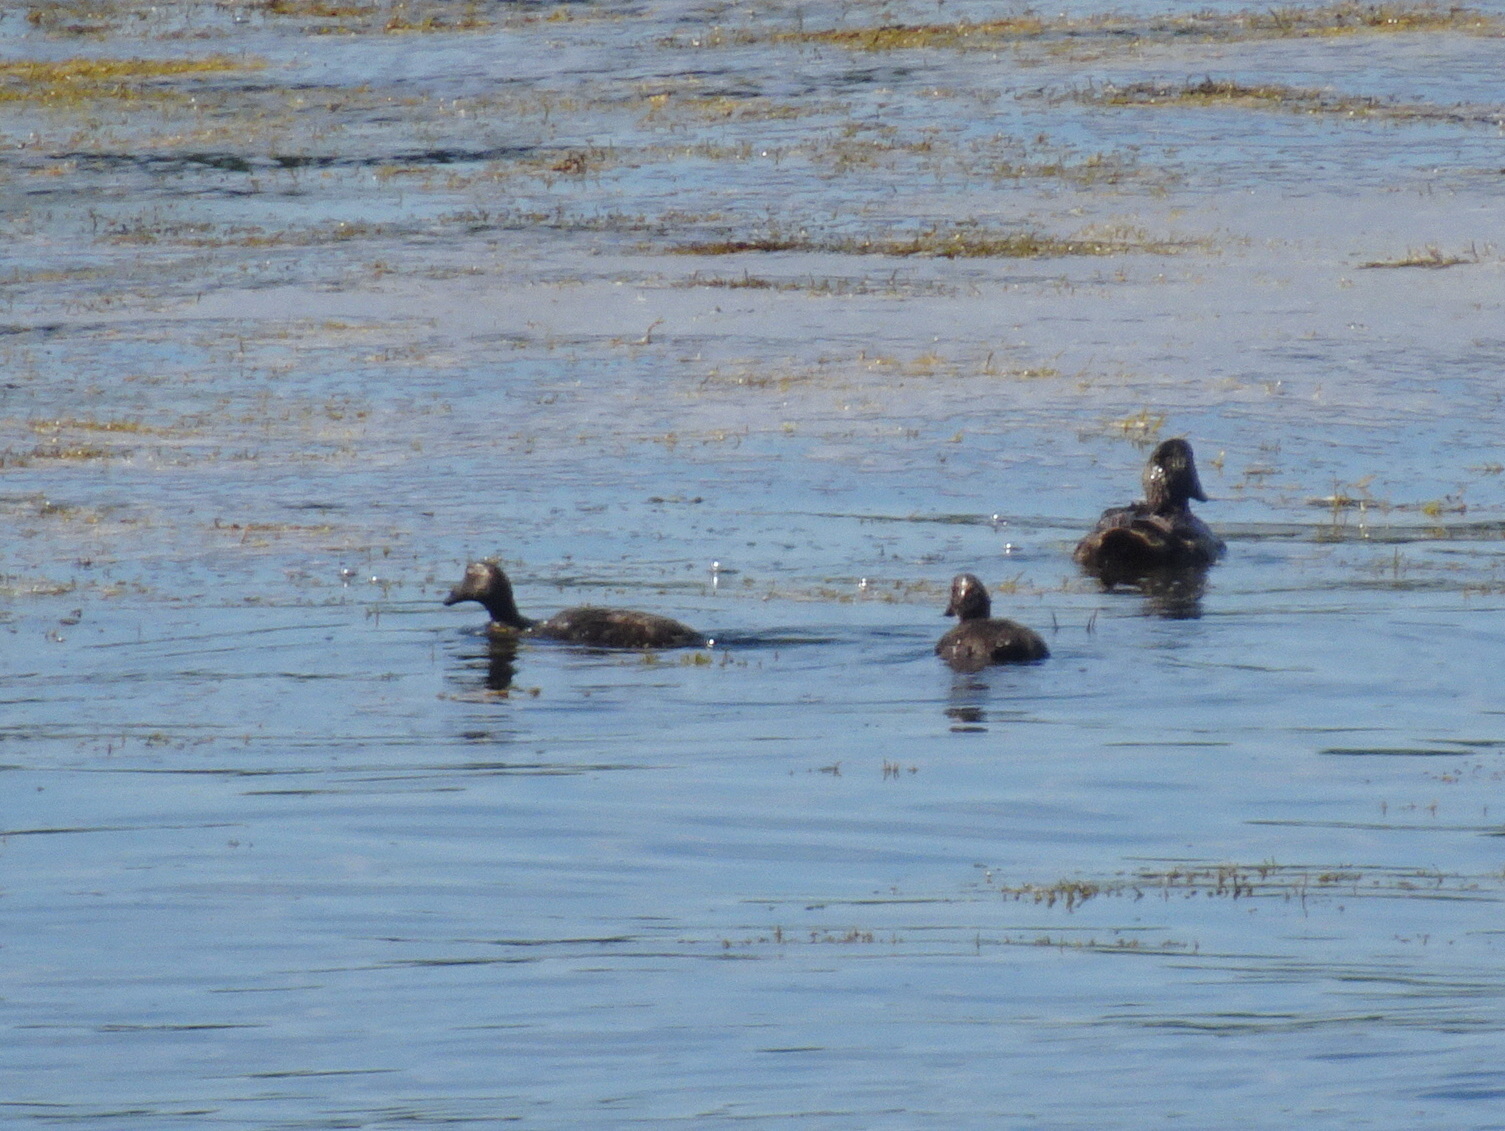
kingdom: Animalia
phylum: Chordata
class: Aves
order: Anseriformes
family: Anatidae
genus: Somateria
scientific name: Somateria mollissima
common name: Common eider
